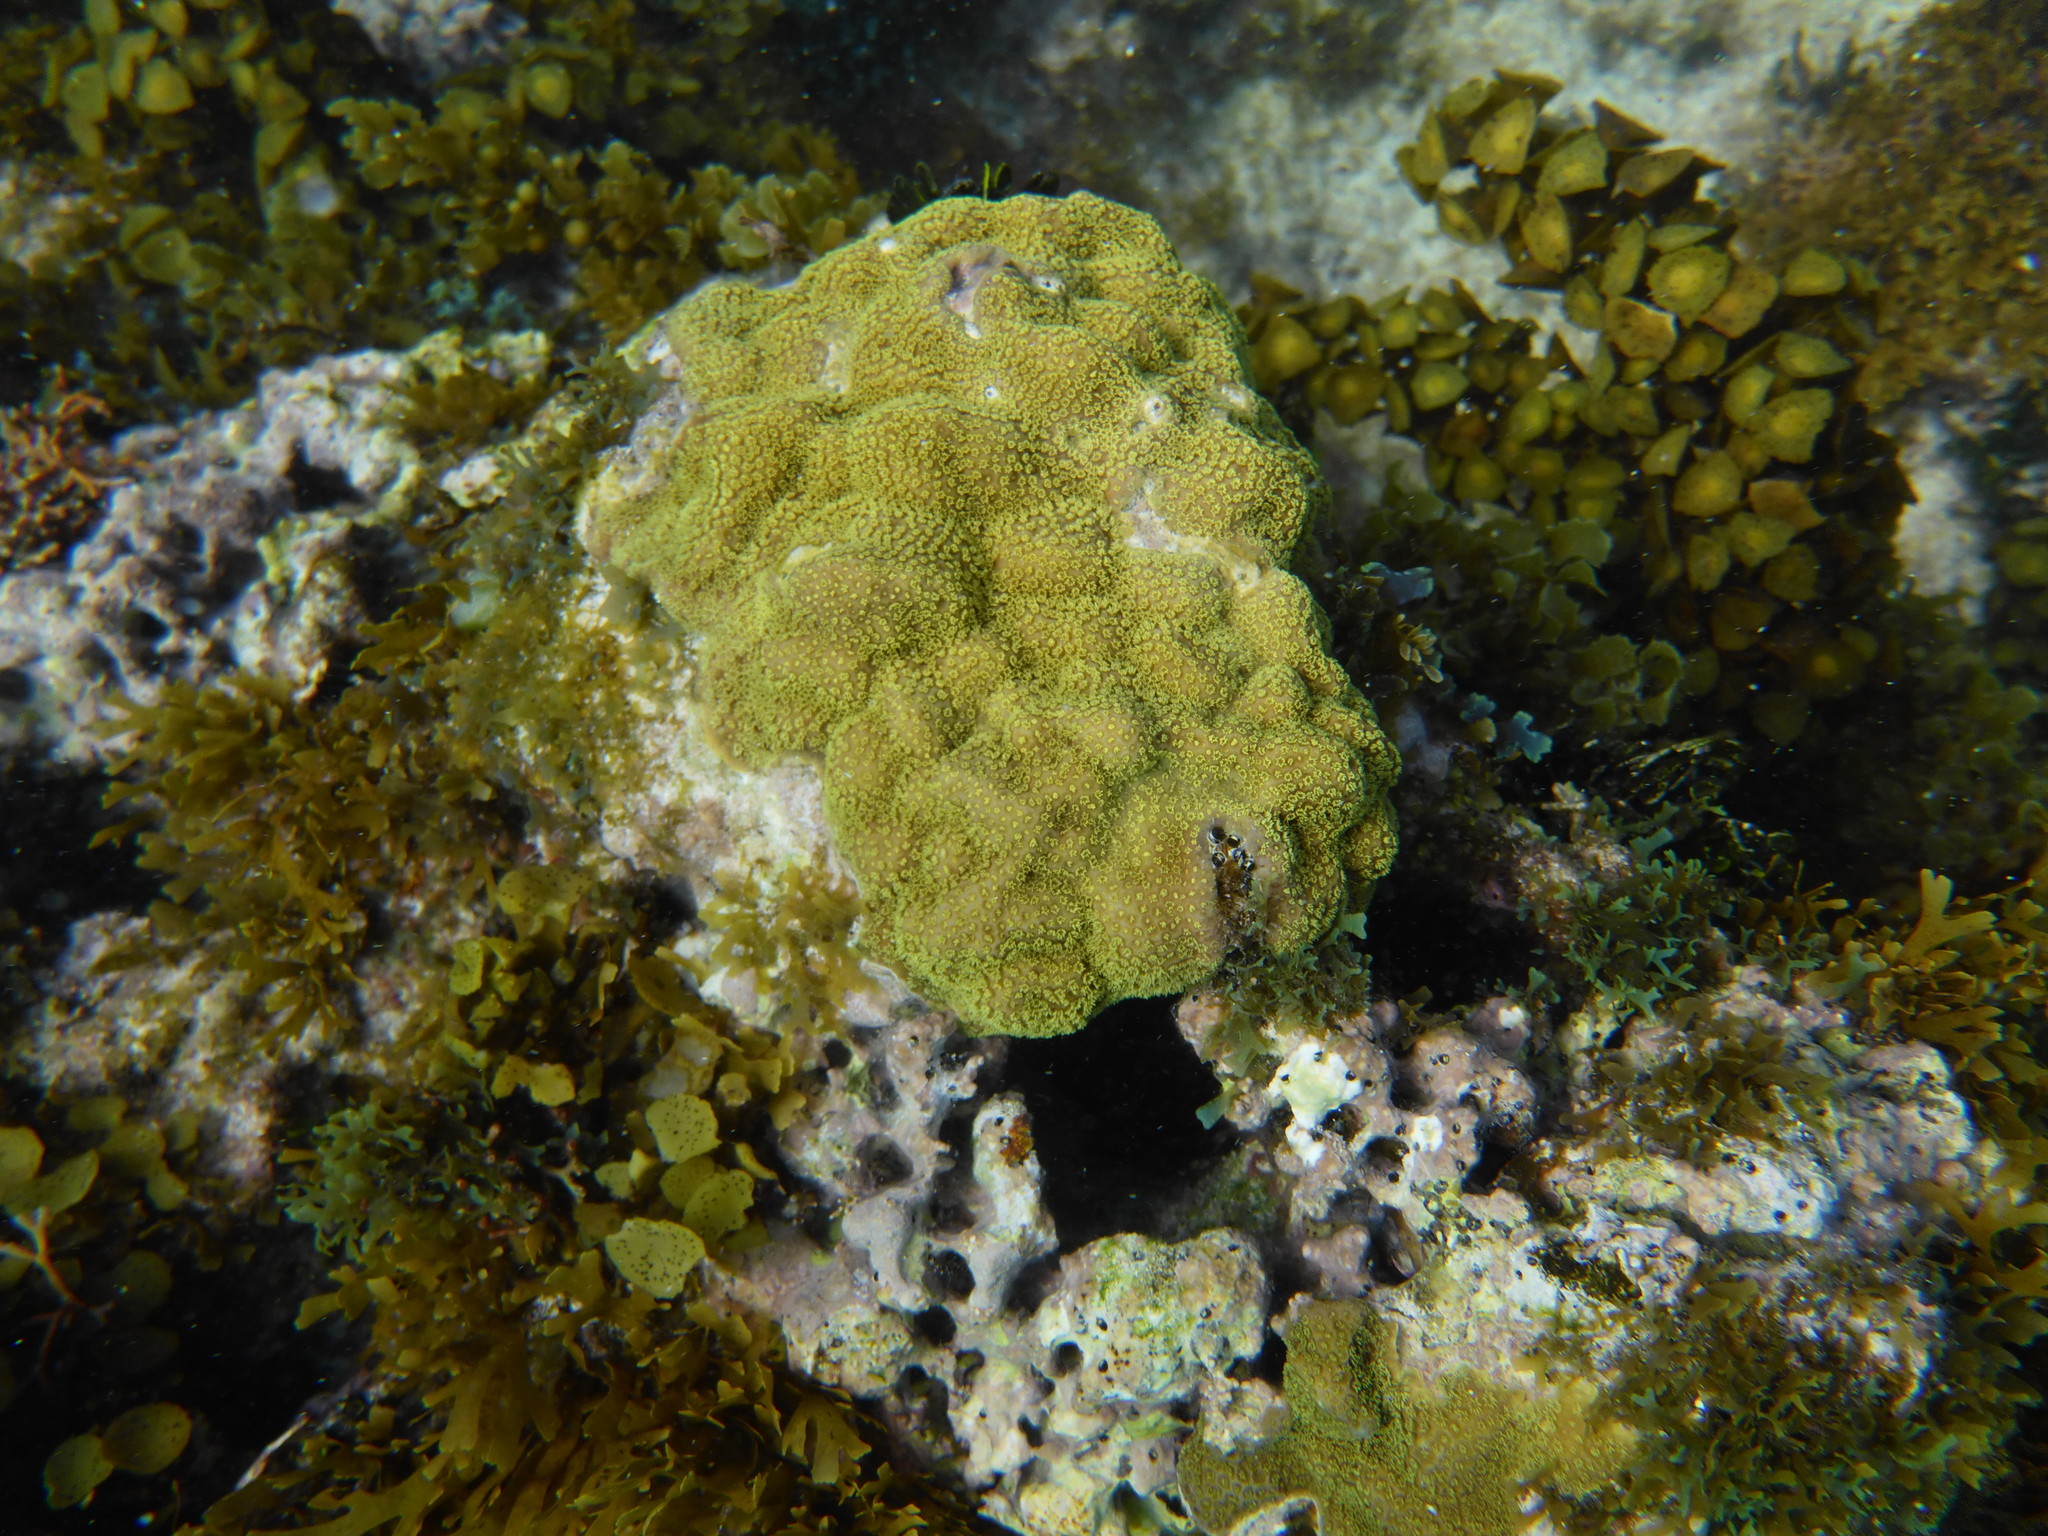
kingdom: Animalia
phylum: Cnidaria
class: Anthozoa
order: Scleractinia
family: Poritidae
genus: Porites
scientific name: Porites astreoides
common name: Mustard hill coral
